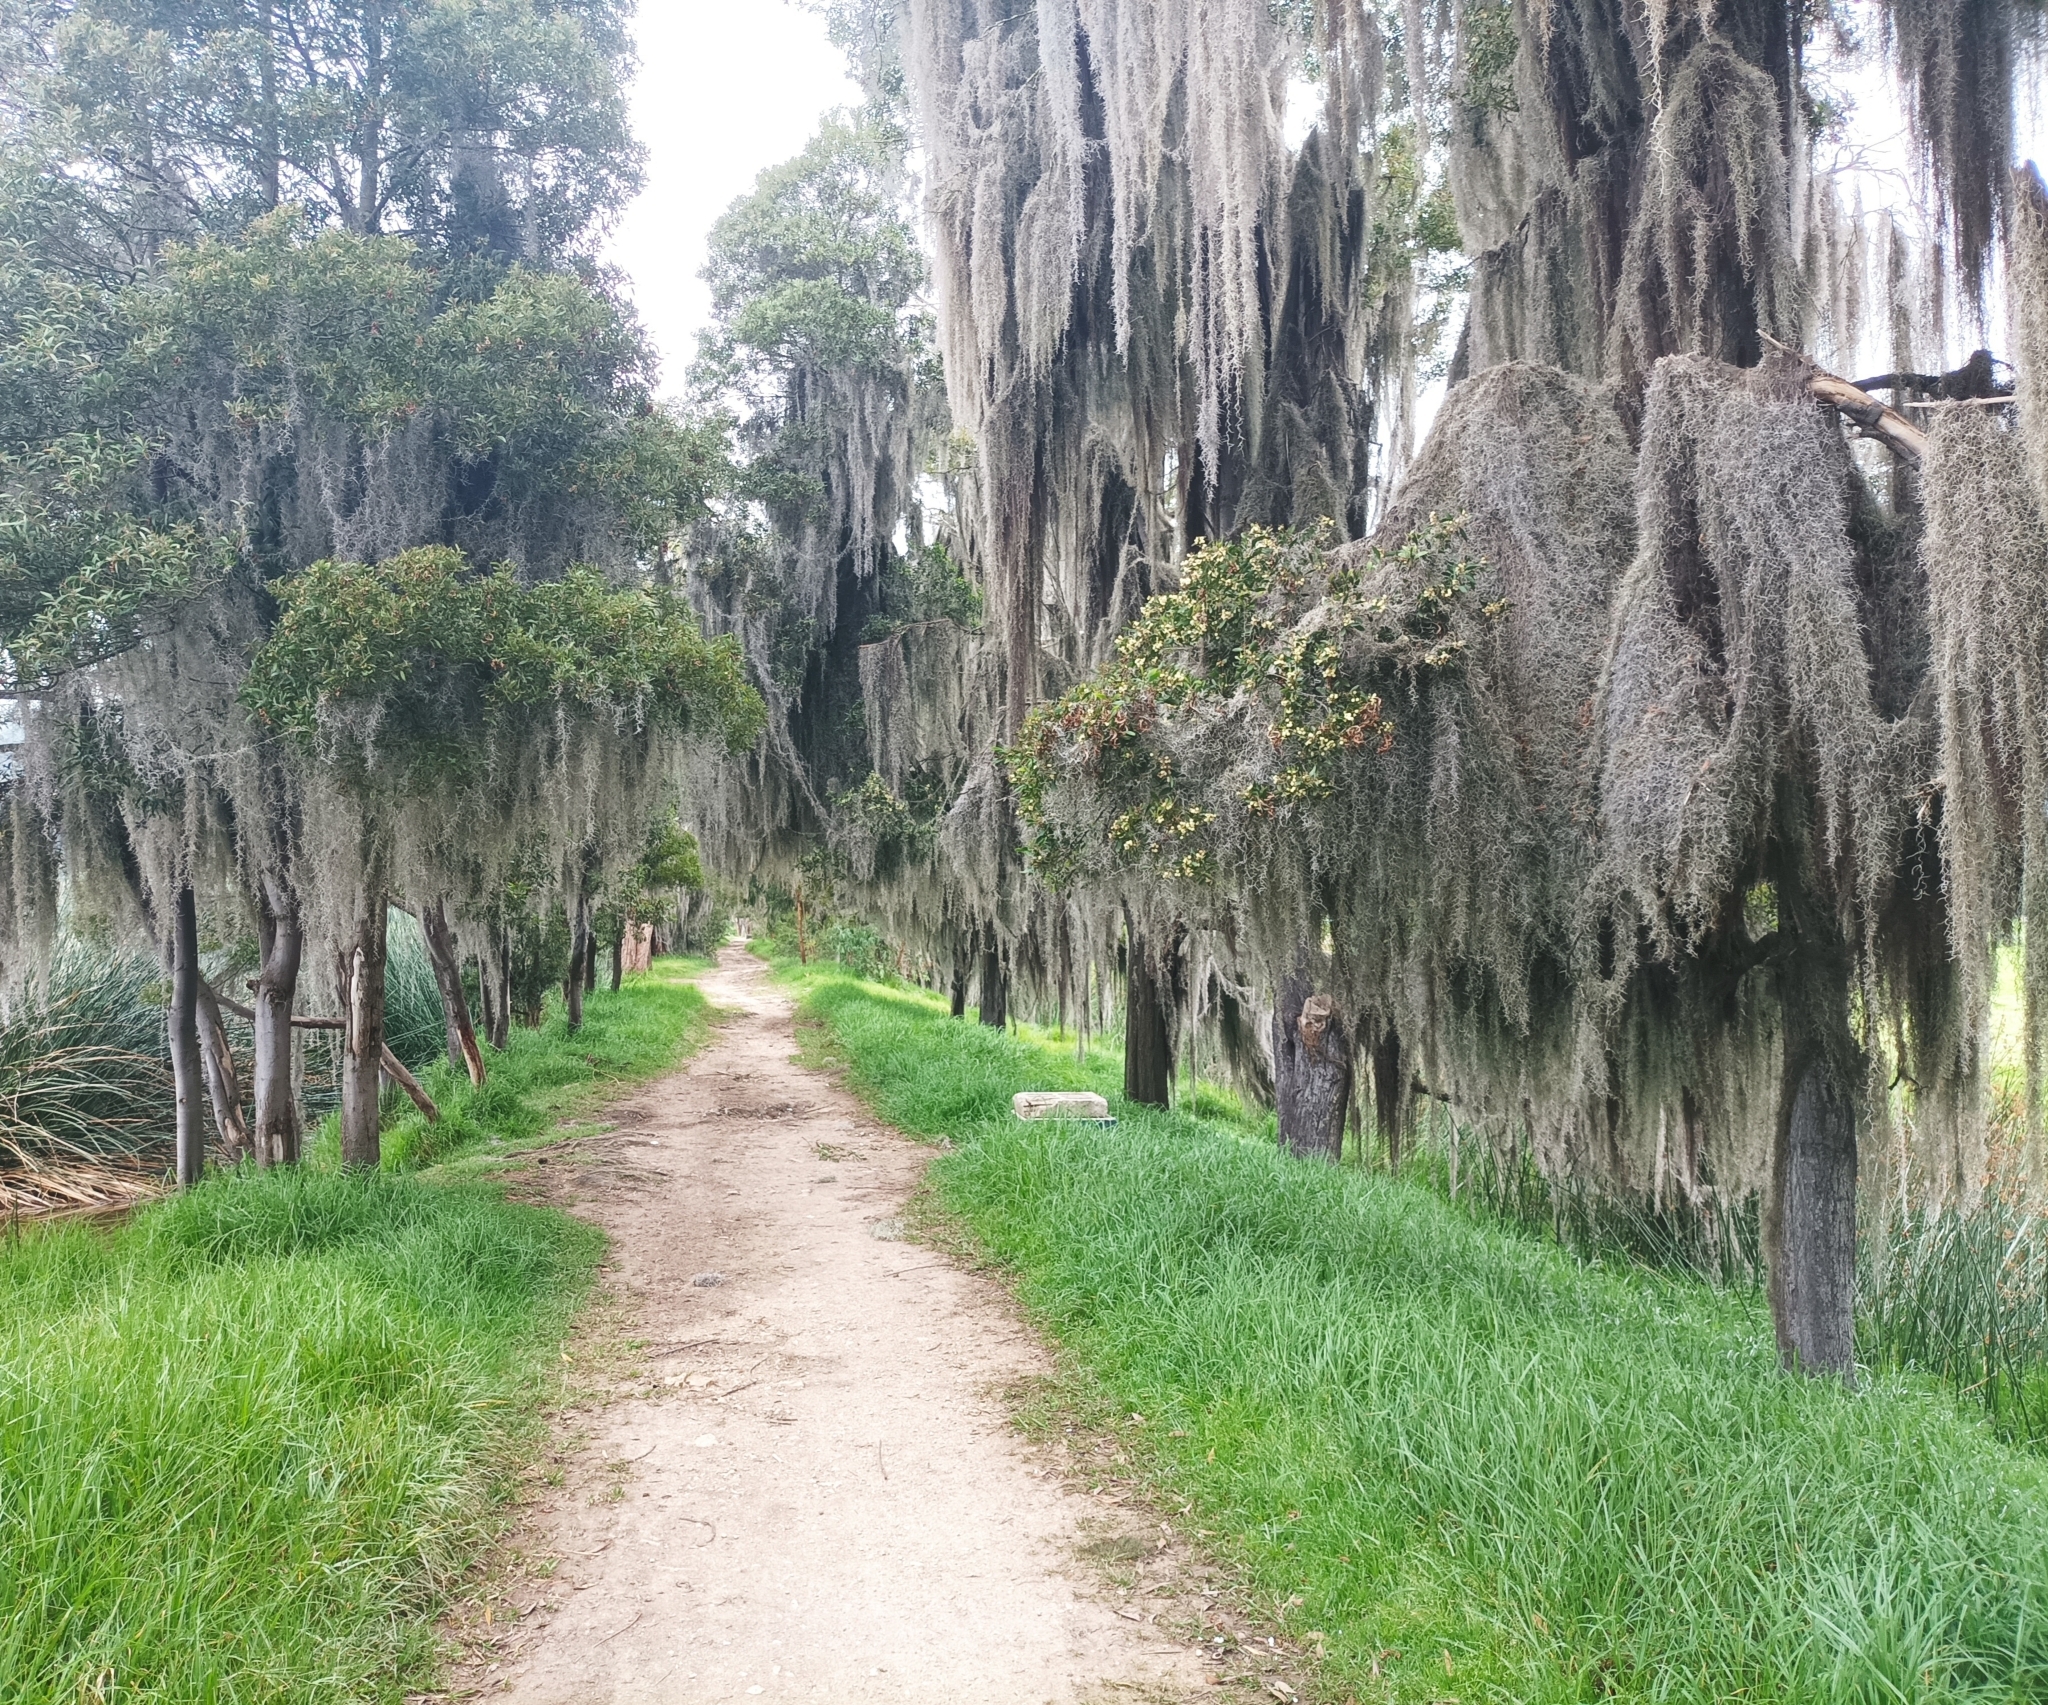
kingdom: Plantae
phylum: Tracheophyta
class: Liliopsida
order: Poales
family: Bromeliaceae
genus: Tillandsia
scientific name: Tillandsia usneoides
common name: Spanish moss
